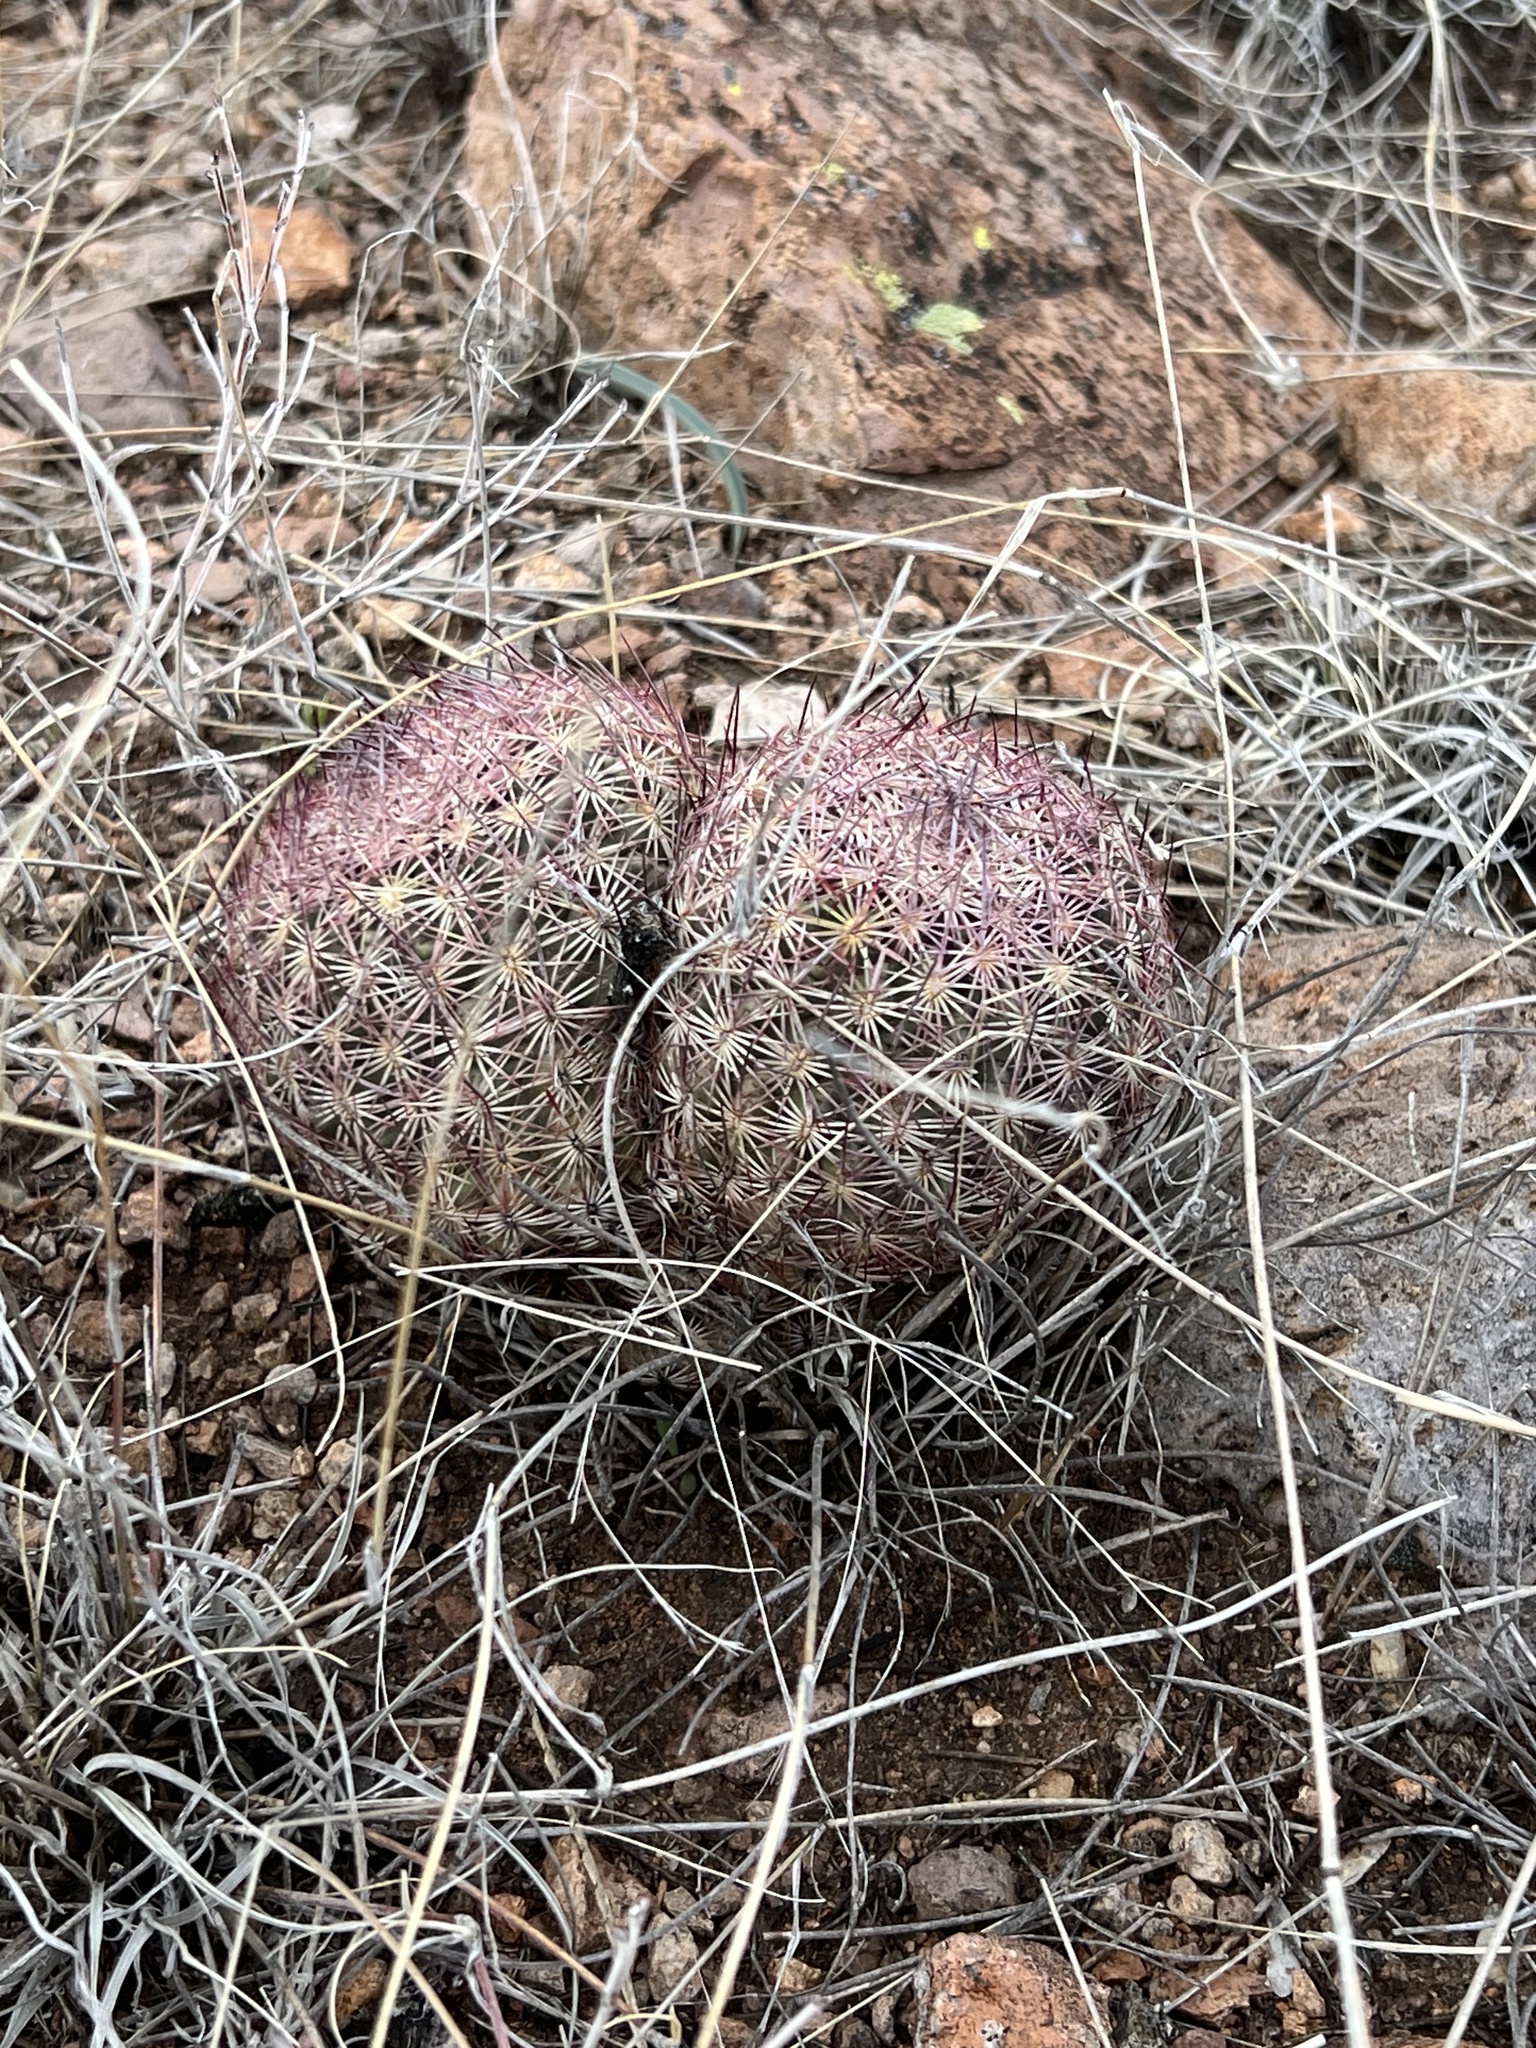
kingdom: Plantae
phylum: Tracheophyta
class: Magnoliopsida
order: Caryophyllales
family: Cactaceae
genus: Sclerocactus
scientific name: Sclerocactus johnsonii
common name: Eight-spine fishhook cactus
